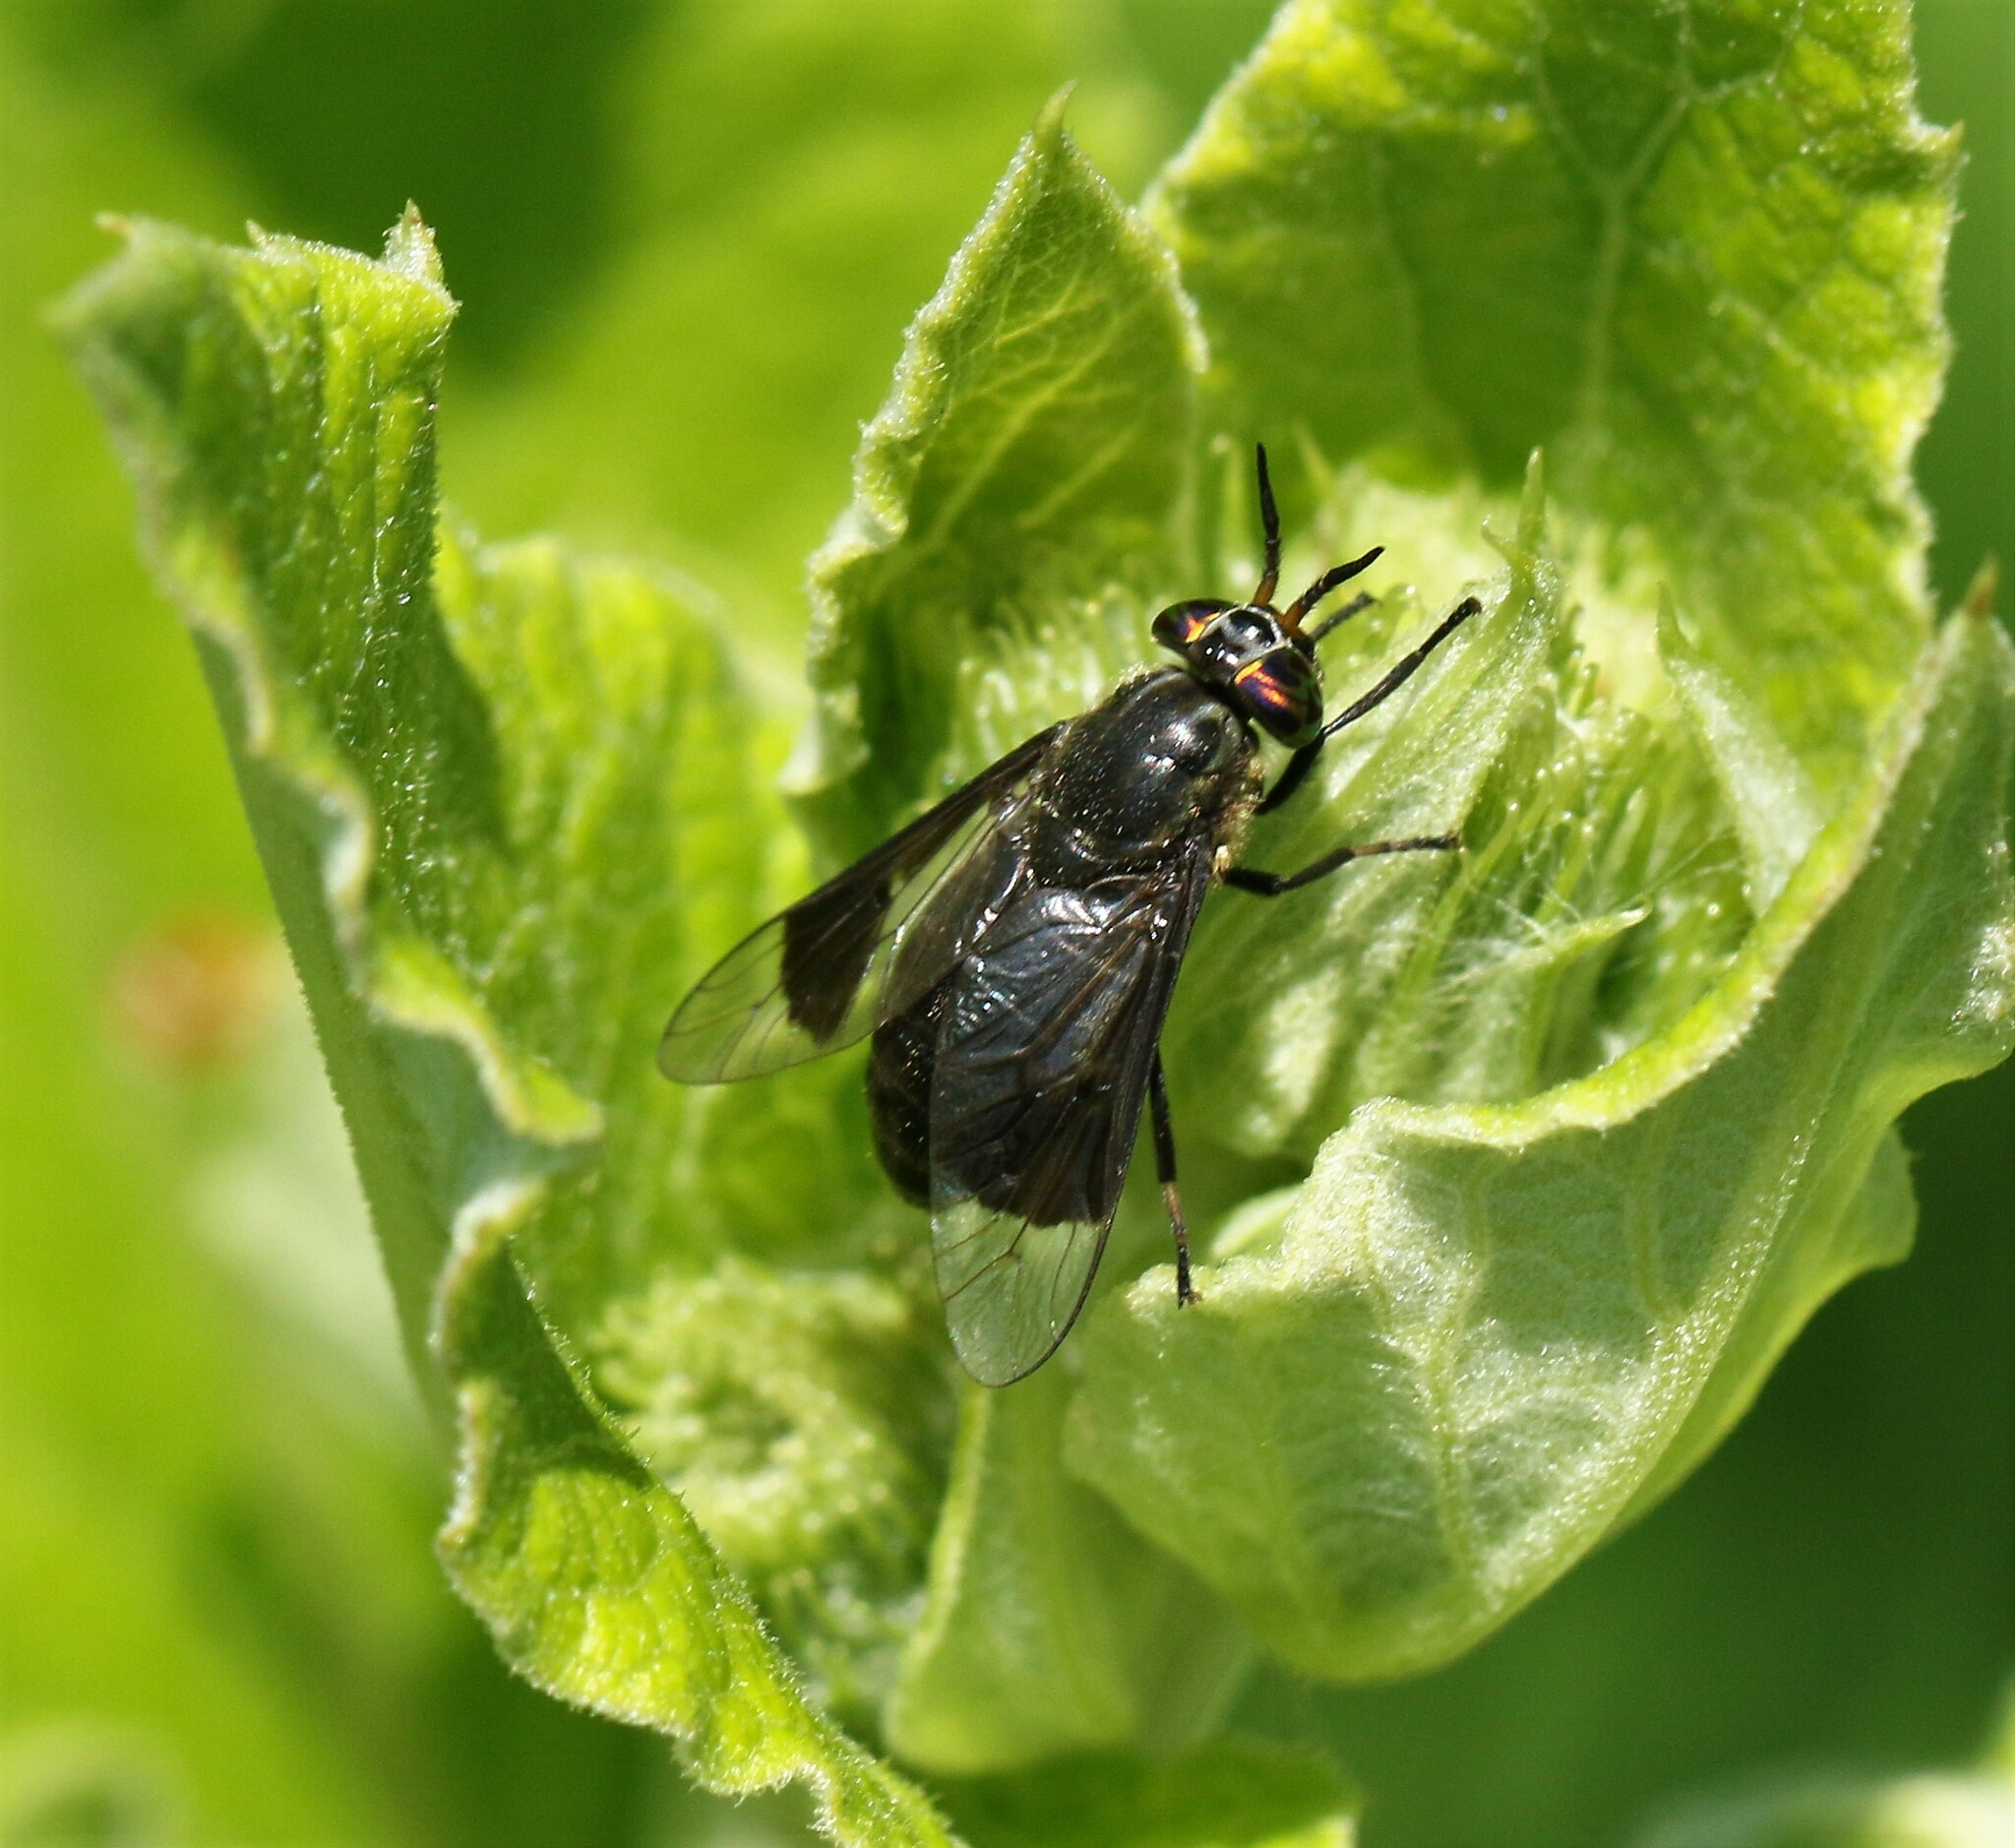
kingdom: Animalia
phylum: Arthropoda
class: Insecta
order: Diptera
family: Tabanidae
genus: Chrysops
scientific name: Chrysops niger
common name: Black deer fly
